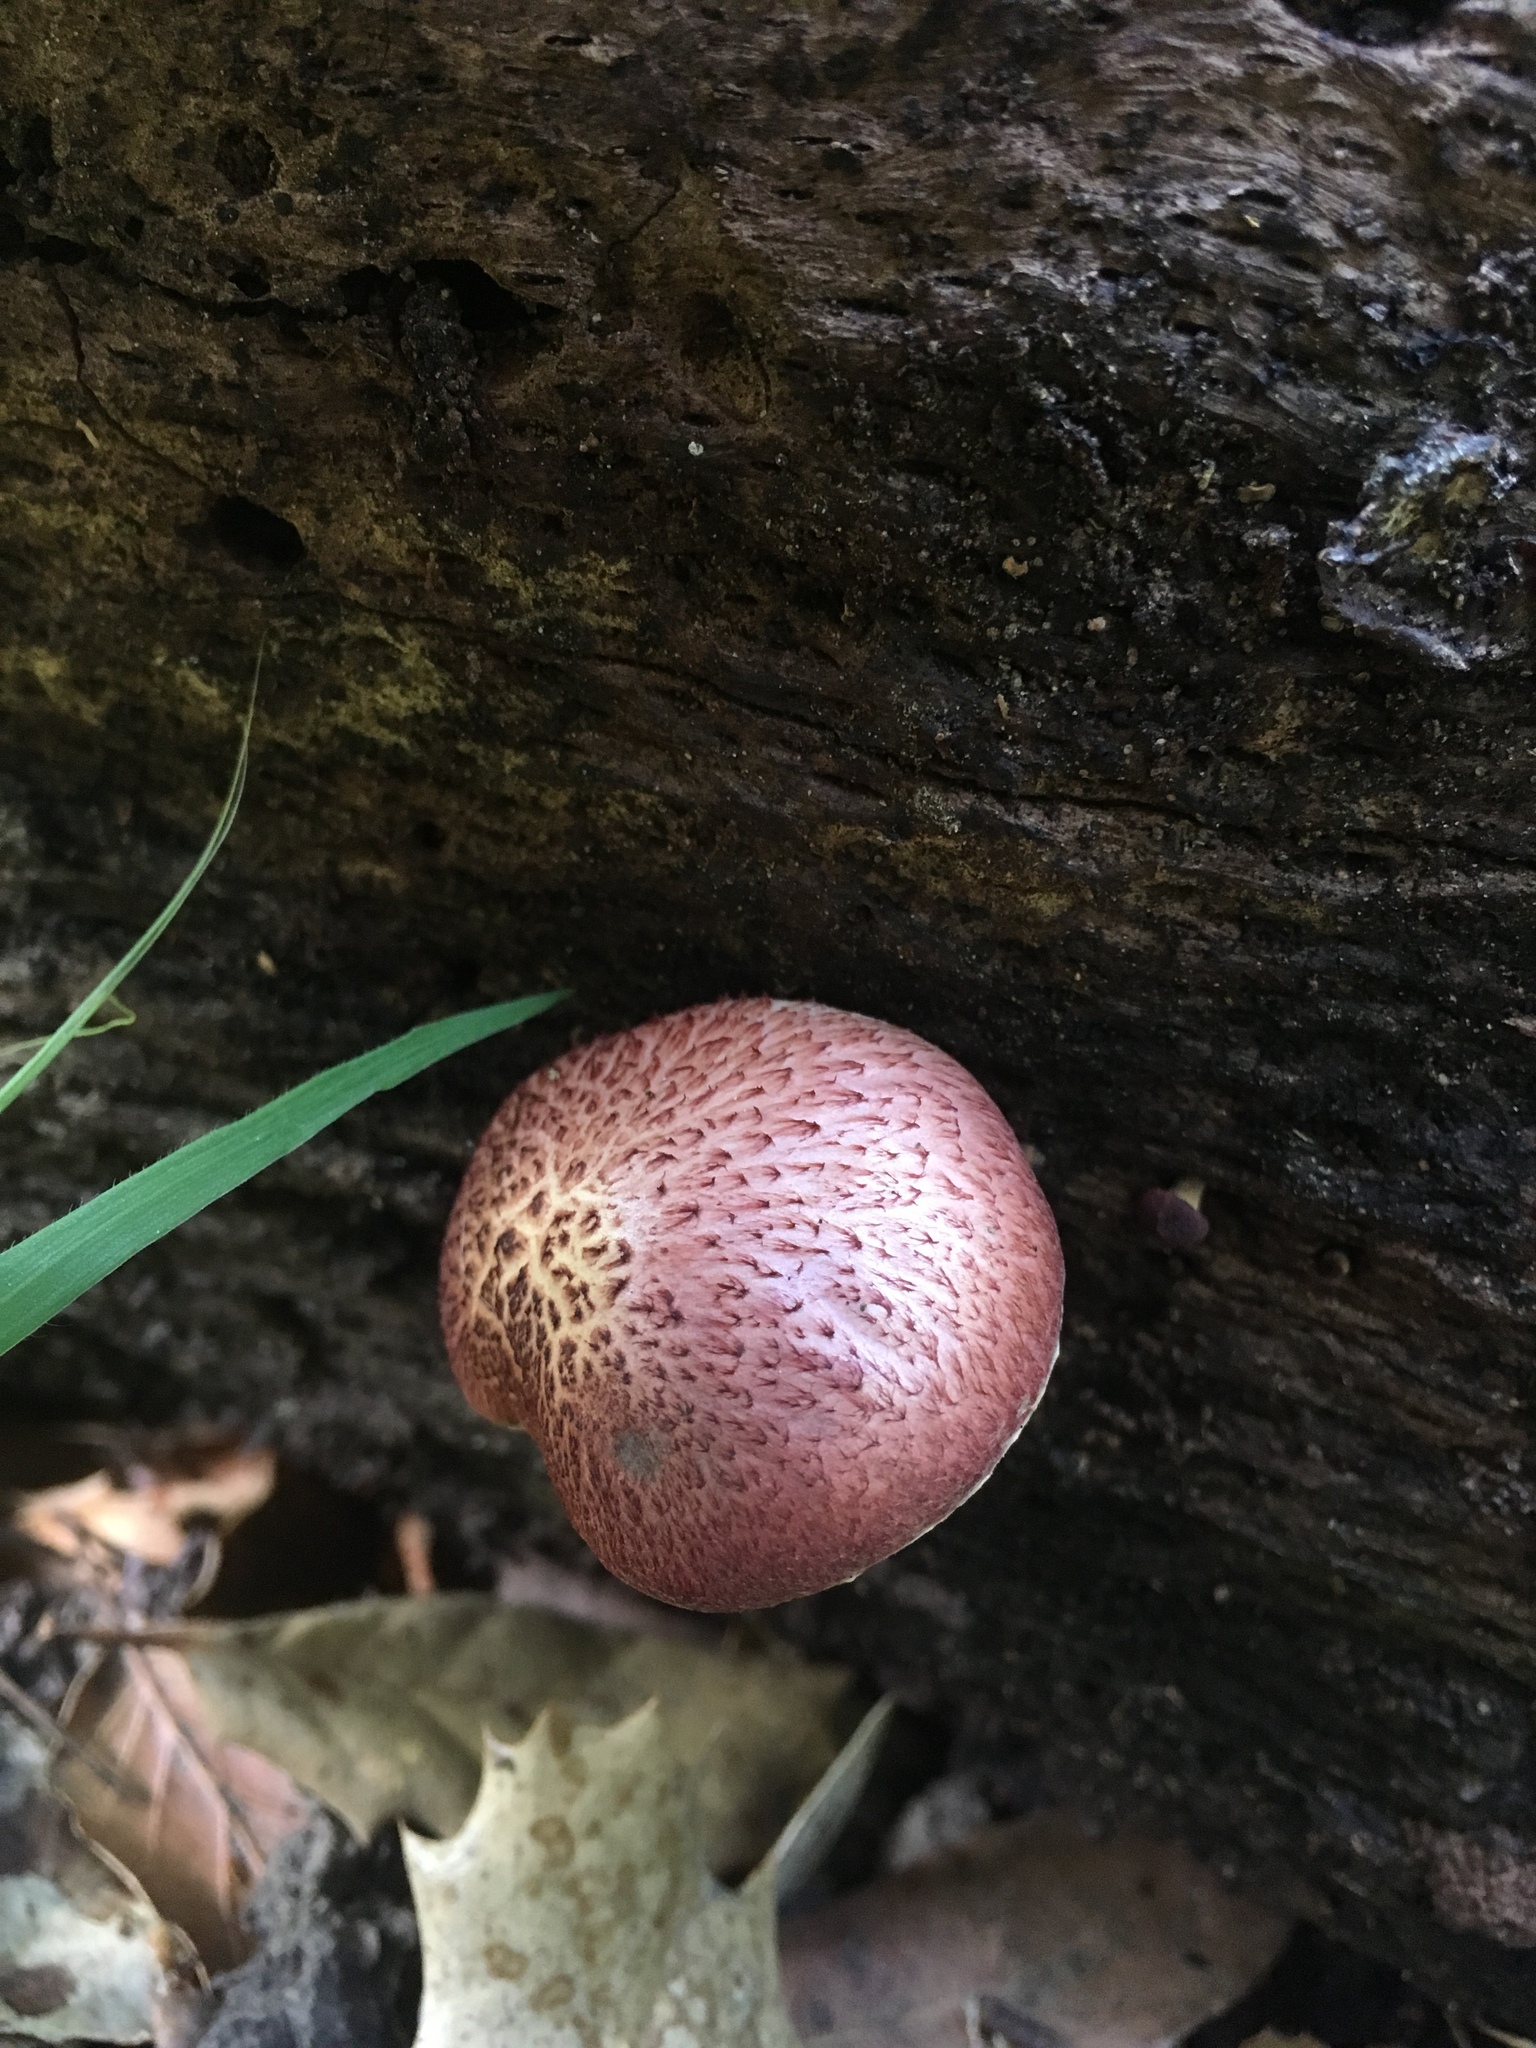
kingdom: Fungi
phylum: Basidiomycota
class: Agaricomycetes
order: Agaricales
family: Hymenogastraceae
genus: Gymnopilus
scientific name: Gymnopilus thiersii
